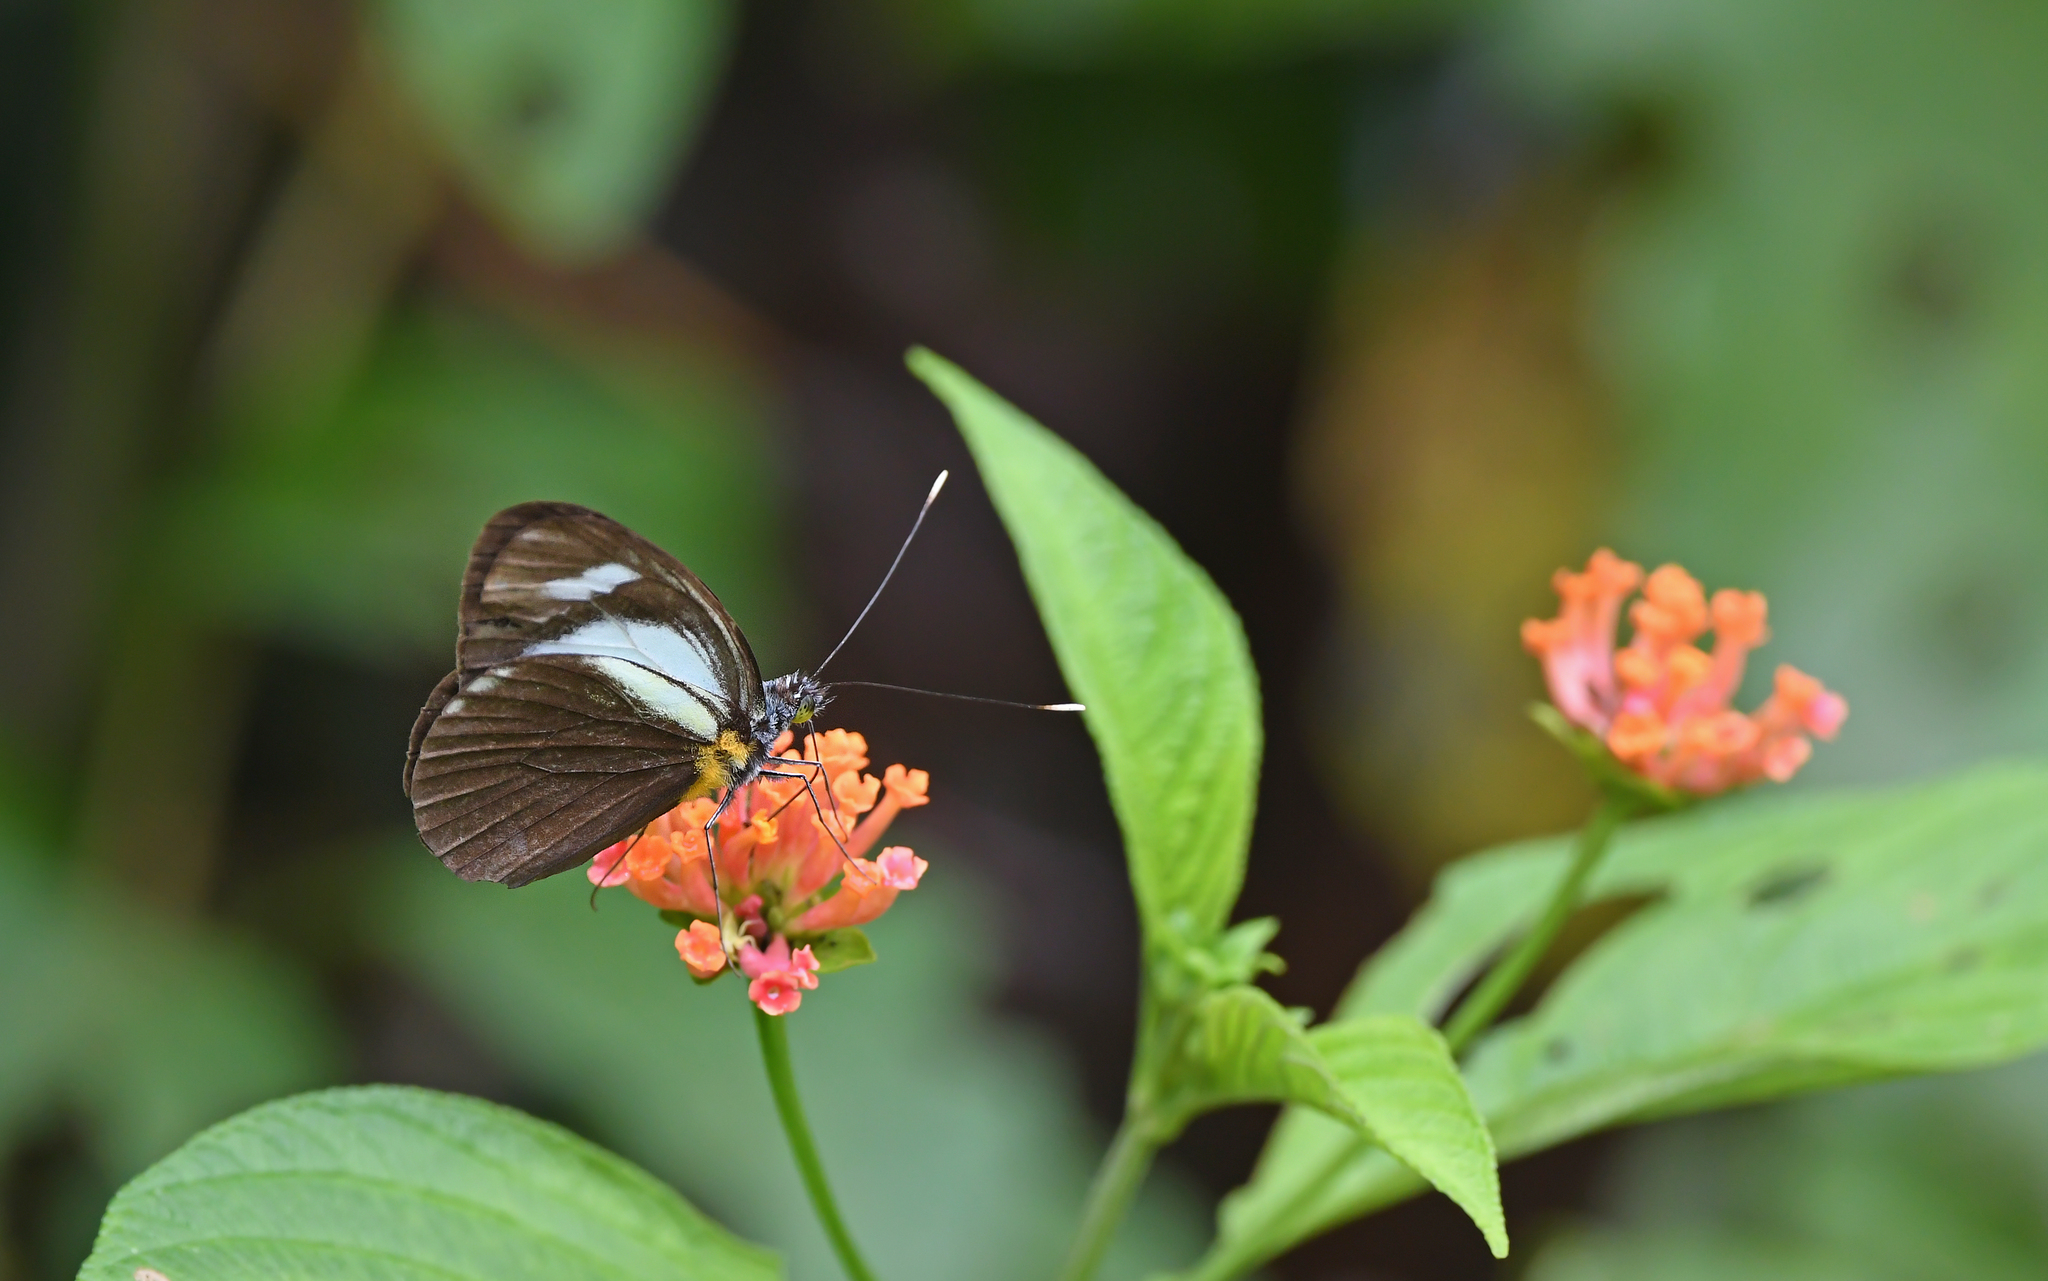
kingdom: Animalia
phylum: Arthropoda
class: Insecta
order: Lepidoptera
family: Pieridae
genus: Leptophobia
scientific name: Leptophobia cinerea
